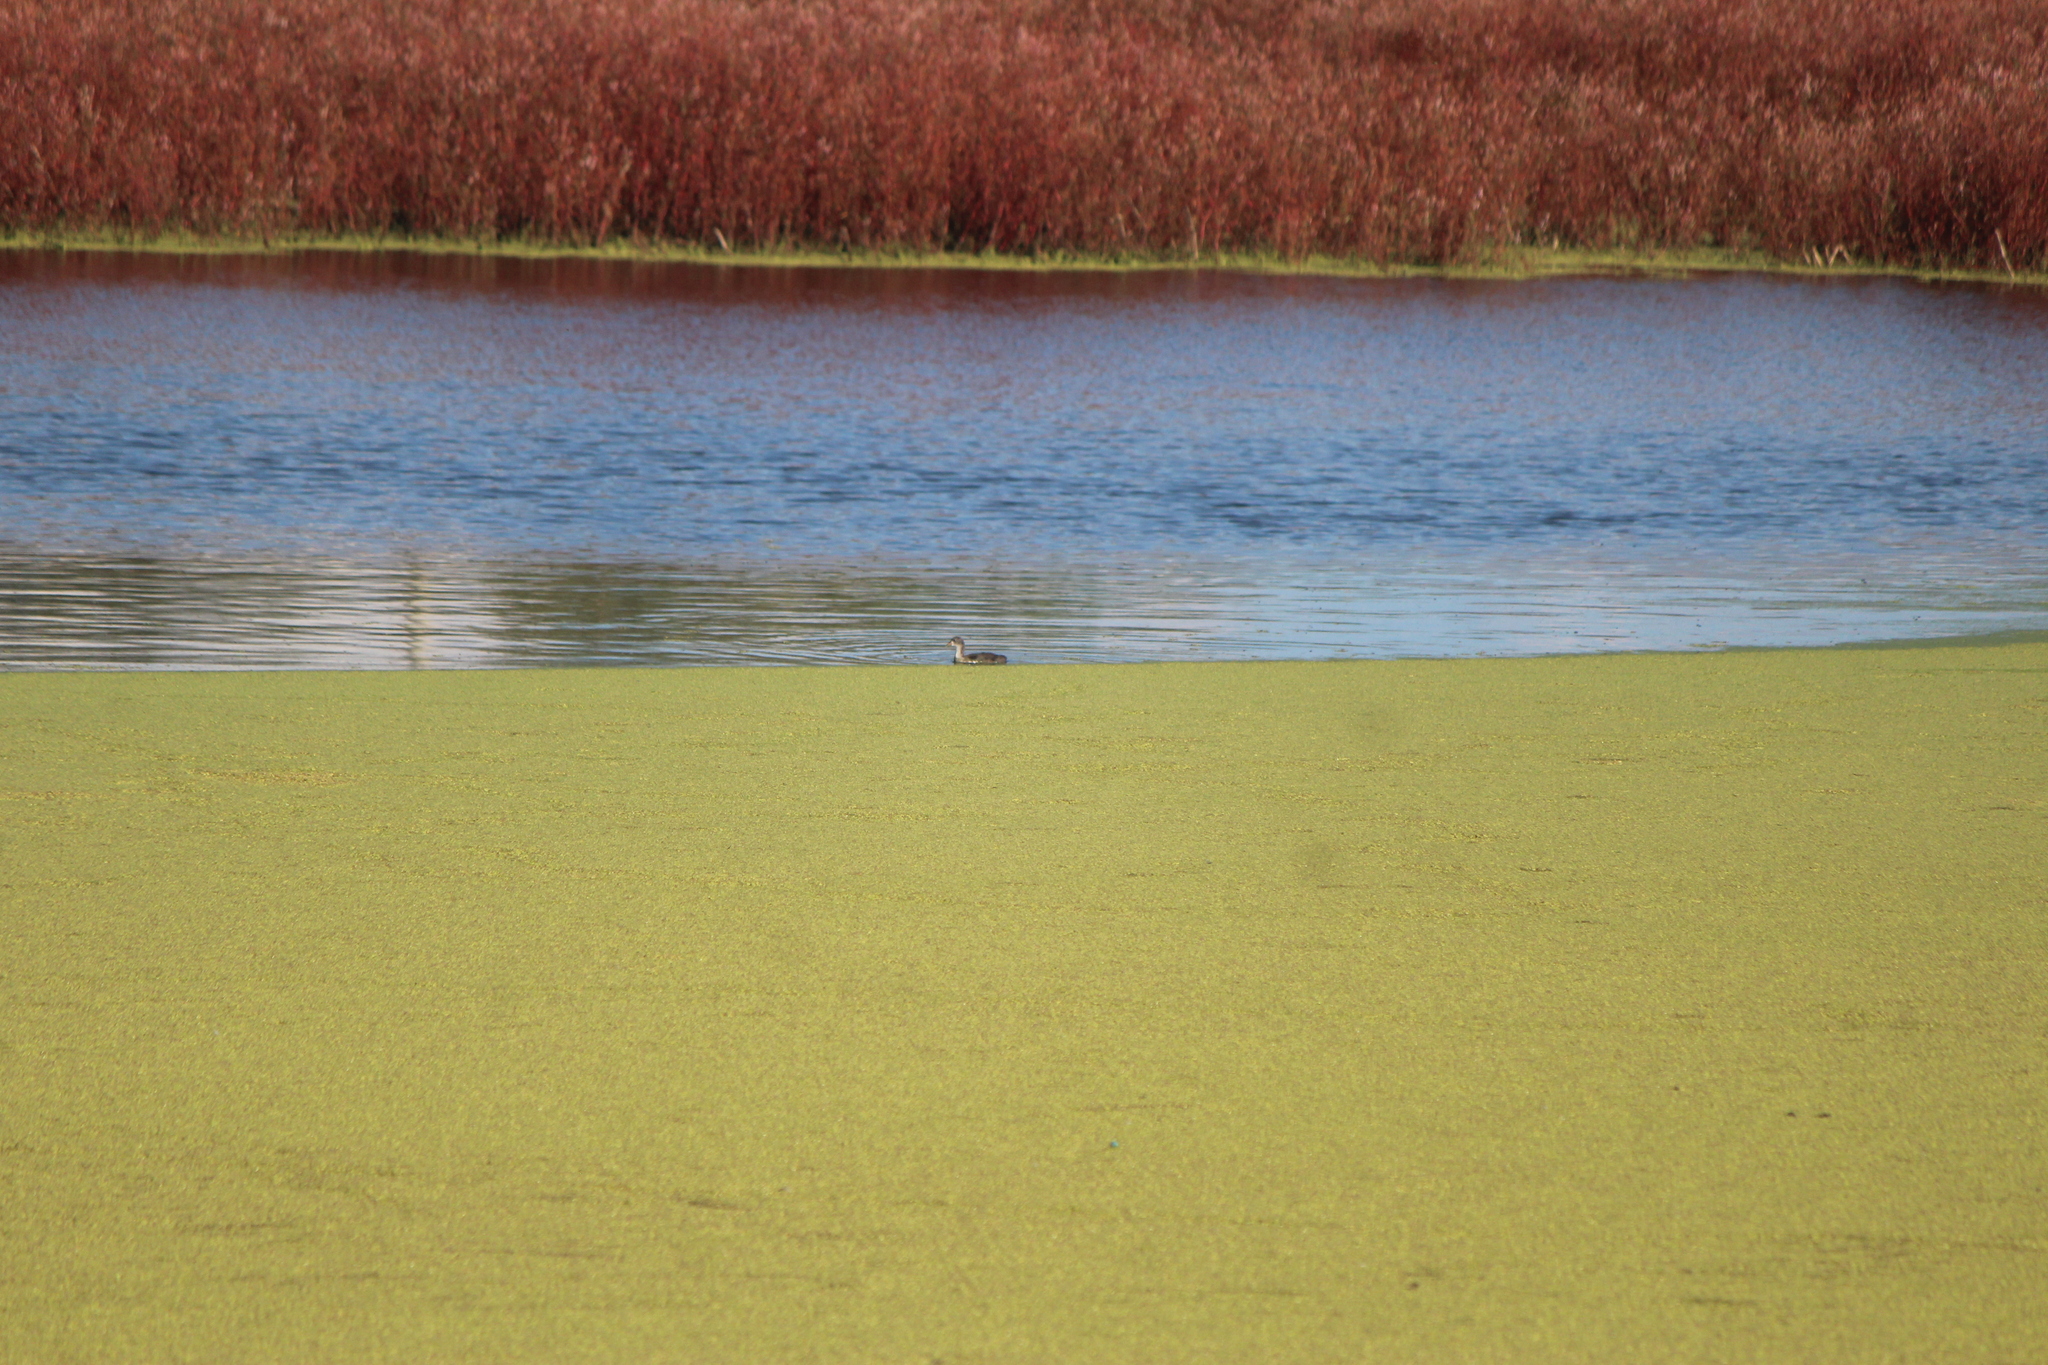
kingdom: Animalia
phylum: Chordata
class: Aves
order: Gruiformes
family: Rallidae
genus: Fulica
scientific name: Fulica americana
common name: American coot
